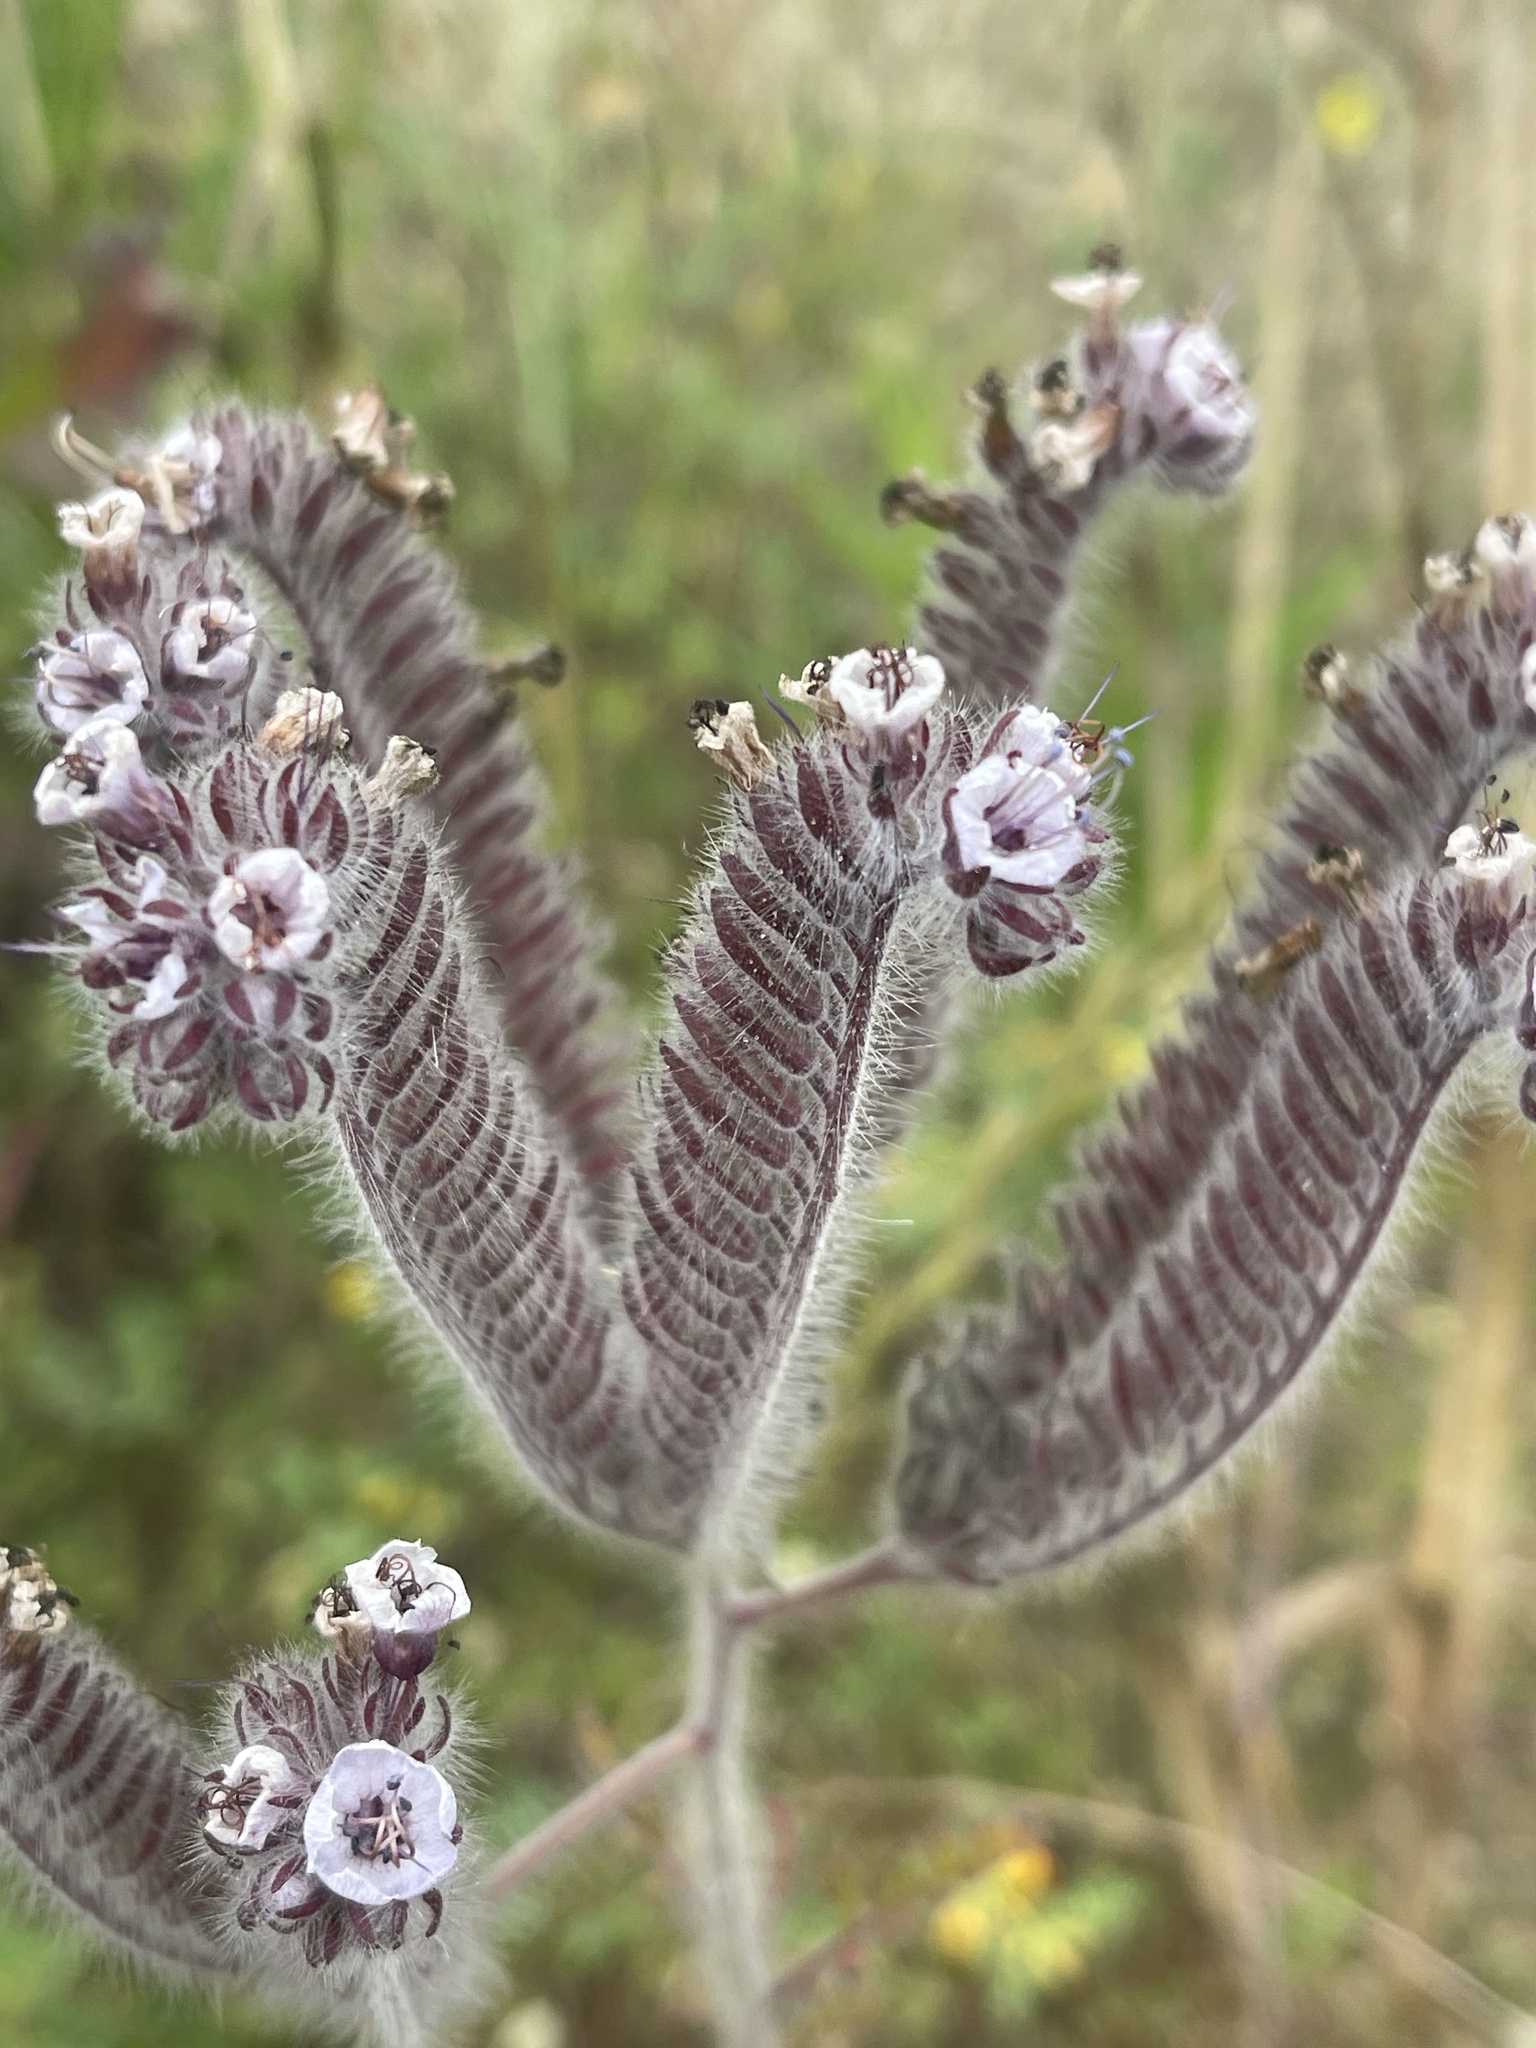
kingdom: Plantae
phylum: Tracheophyta
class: Magnoliopsida
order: Boraginales
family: Hydrophyllaceae
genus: Phacelia
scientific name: Phacelia hubbyi
